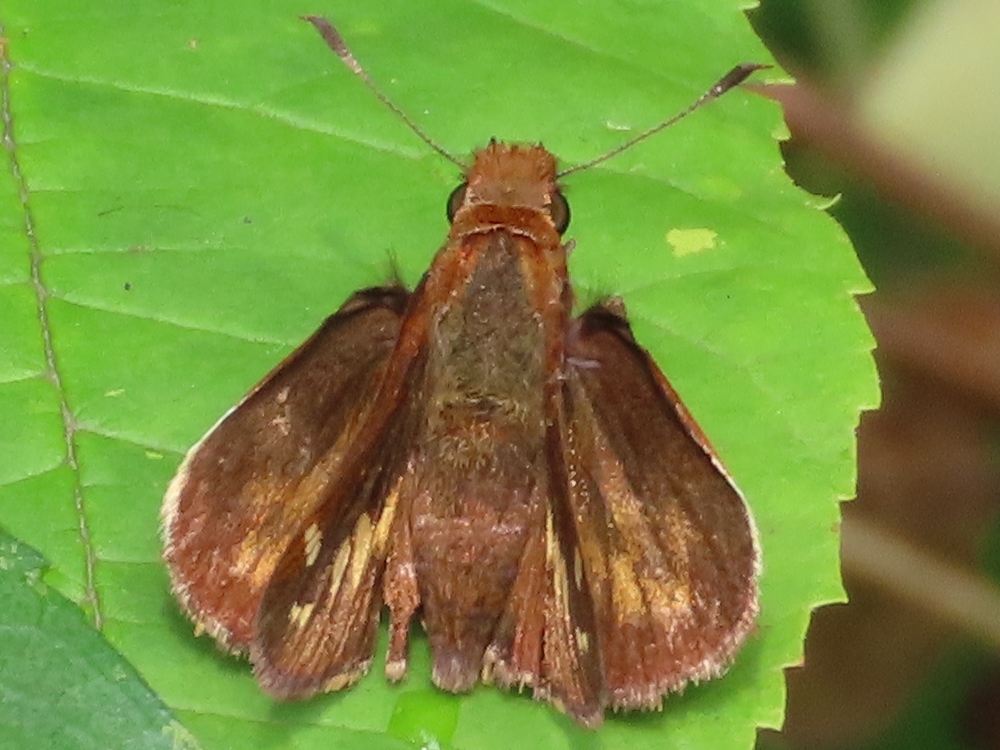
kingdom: Animalia
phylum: Arthropoda
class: Insecta
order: Lepidoptera
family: Hesperiidae
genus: Lon
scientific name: Lon zabulon
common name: Zabulon skipper
